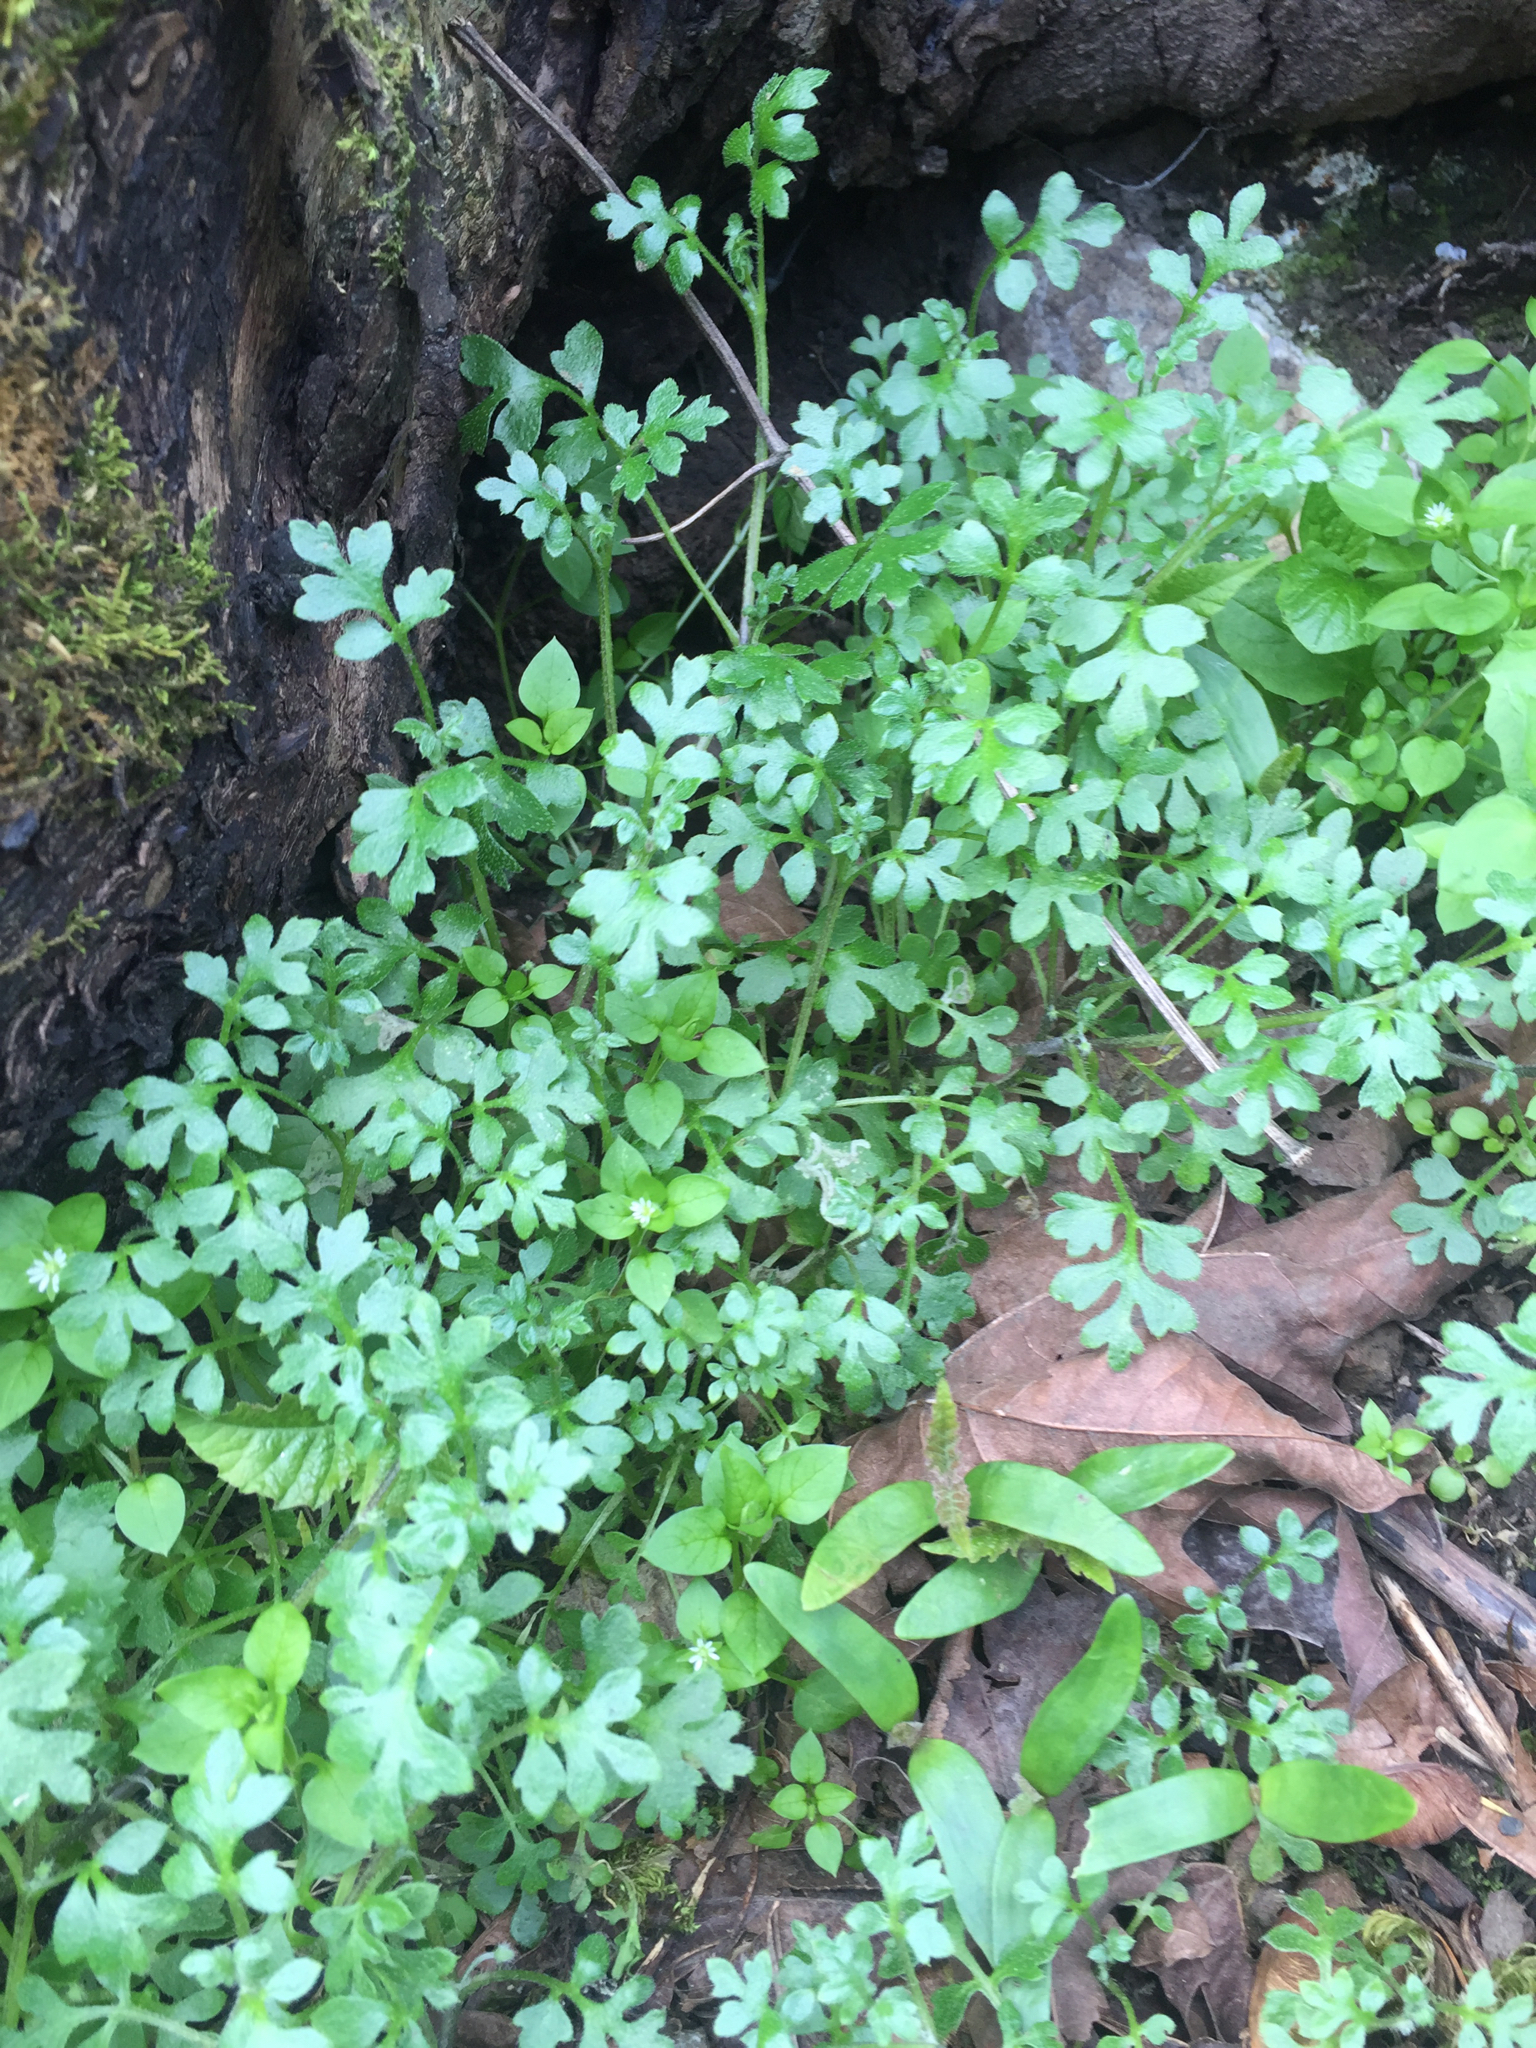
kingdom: Plantae
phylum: Tracheophyta
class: Magnoliopsida
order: Boraginales
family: Hydrophyllaceae
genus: Nemophila
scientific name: Nemophila parviflora
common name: Small-flowered baby-blue-eyes
